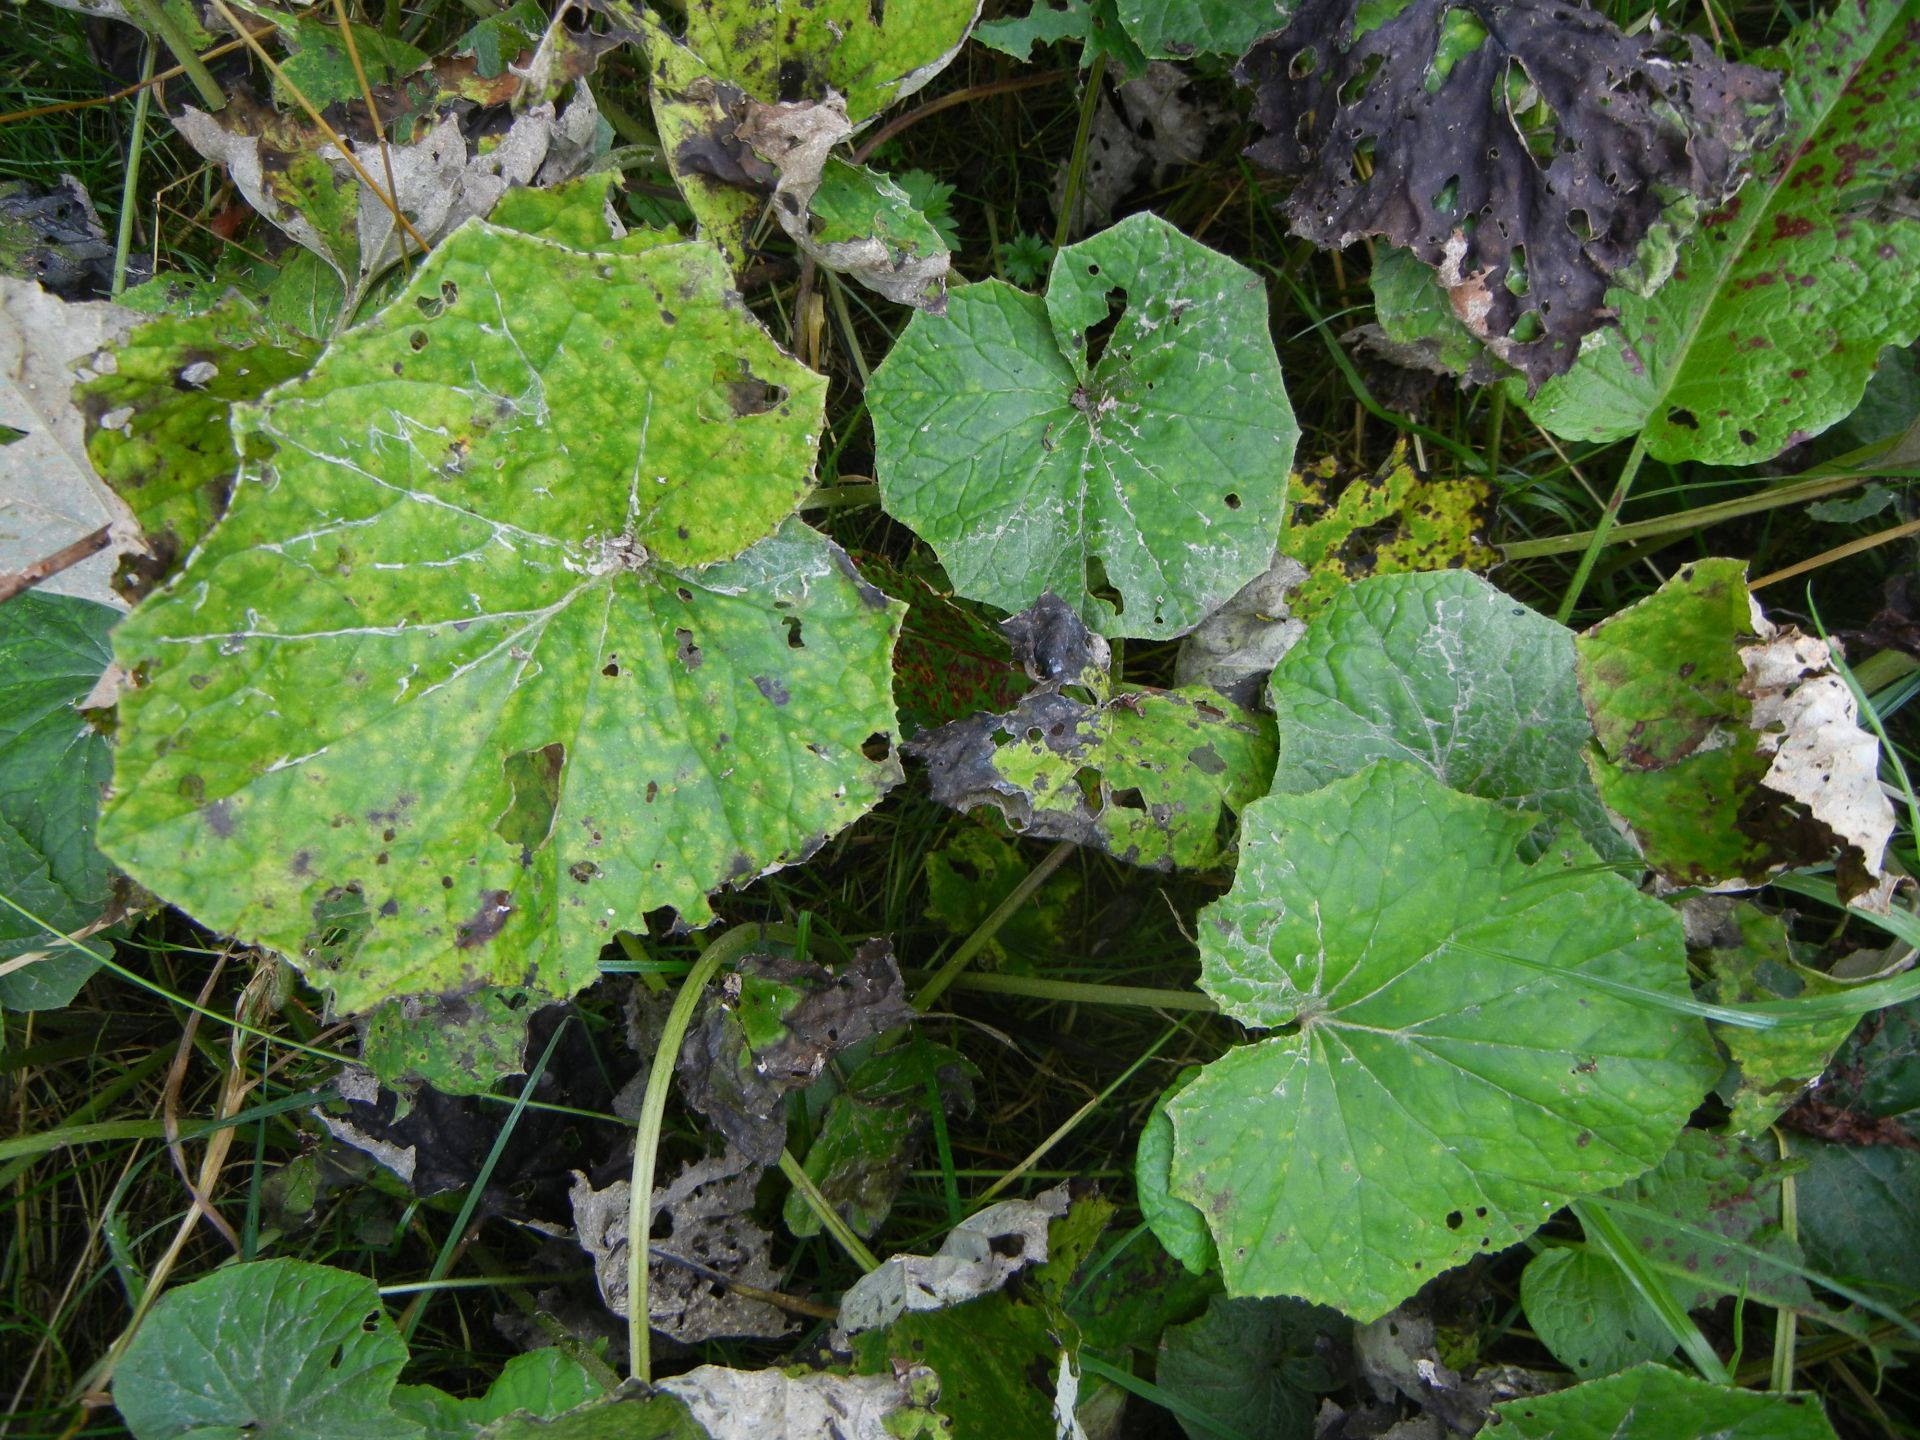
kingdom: Plantae
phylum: Tracheophyta
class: Magnoliopsida
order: Asterales
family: Asteraceae
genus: Tussilago
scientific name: Tussilago farfara
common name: Coltsfoot
